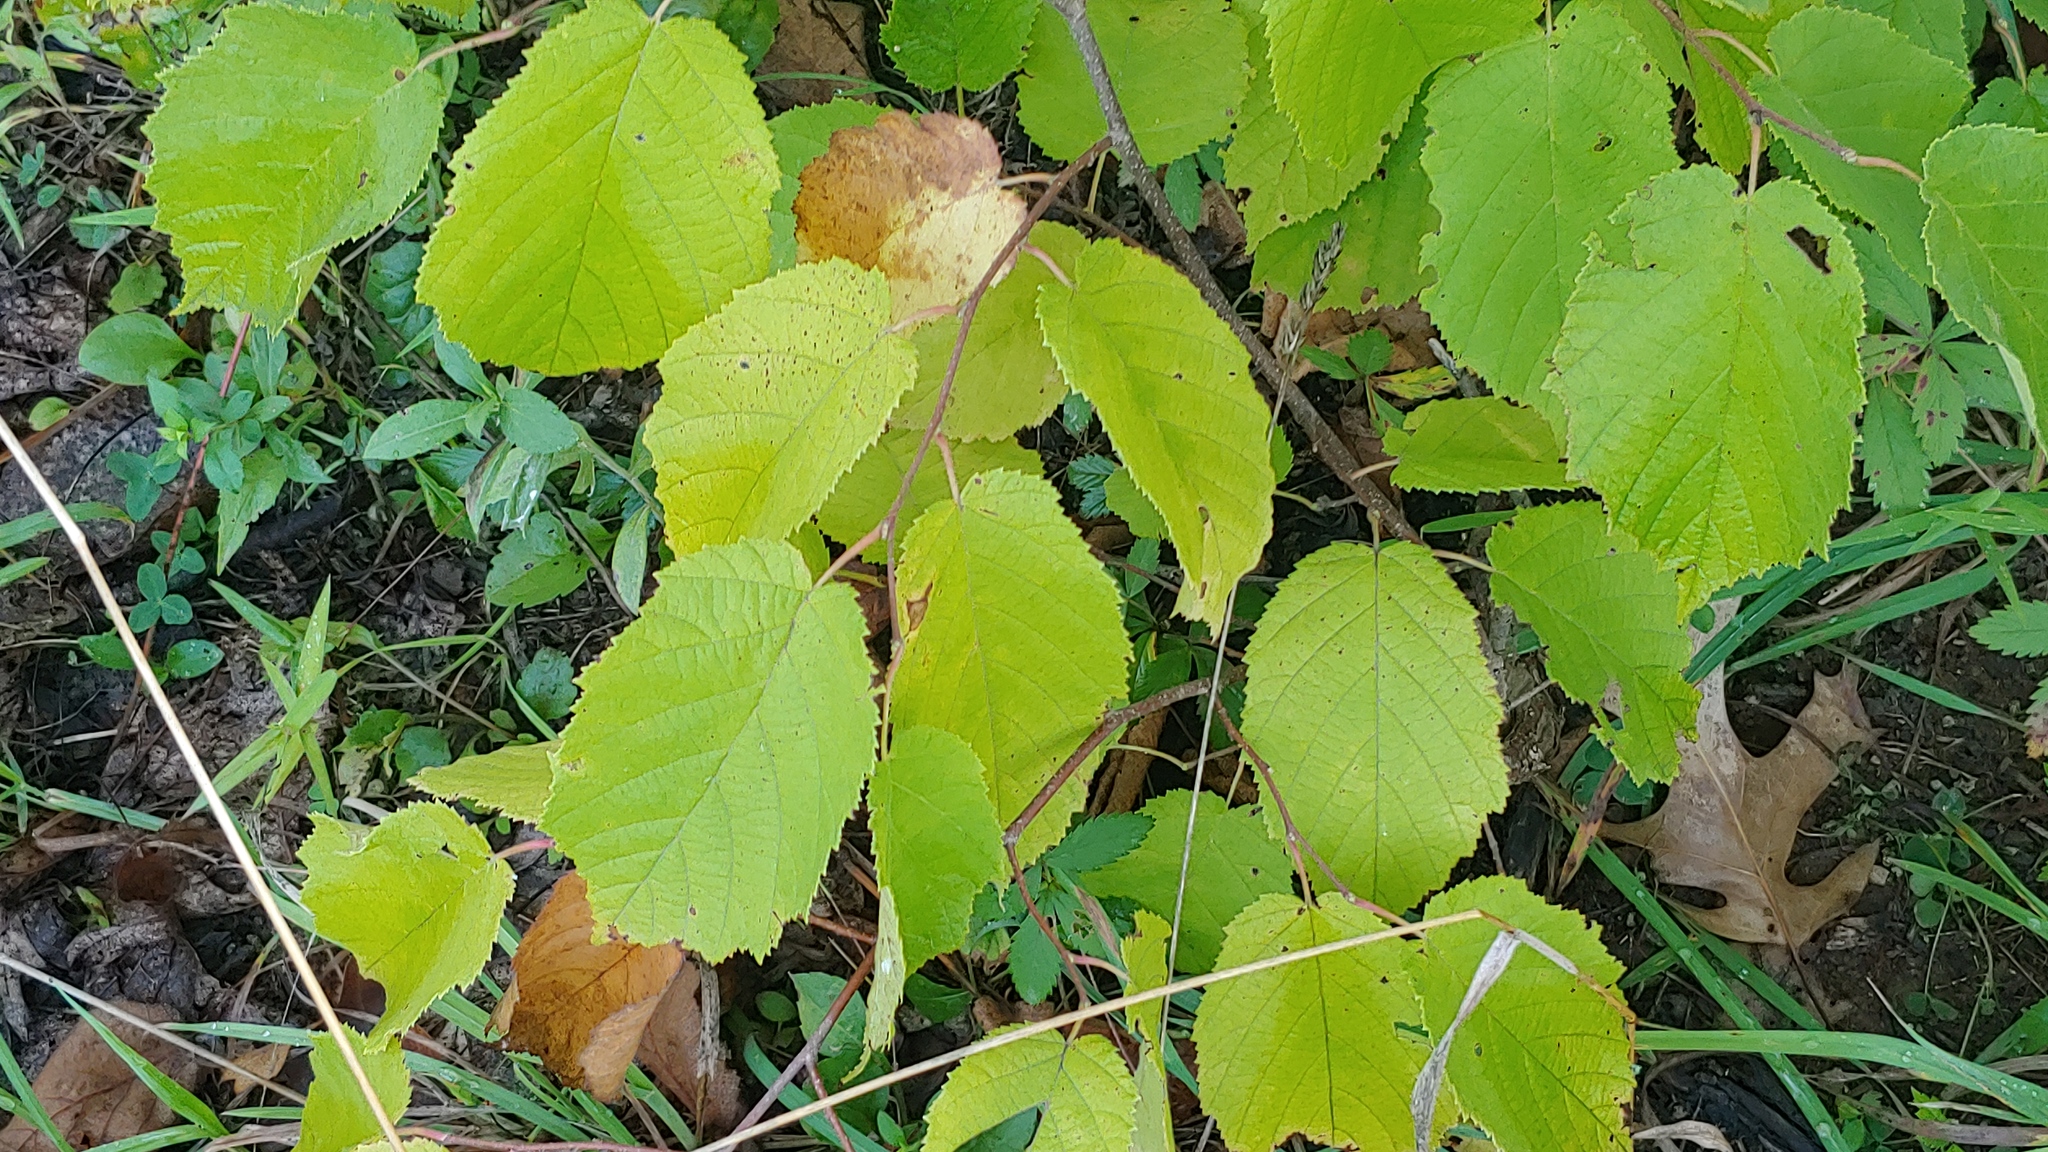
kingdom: Plantae
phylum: Tracheophyta
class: Magnoliopsida
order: Fagales
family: Betulaceae
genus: Corylus
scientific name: Corylus americana
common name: American hazel
